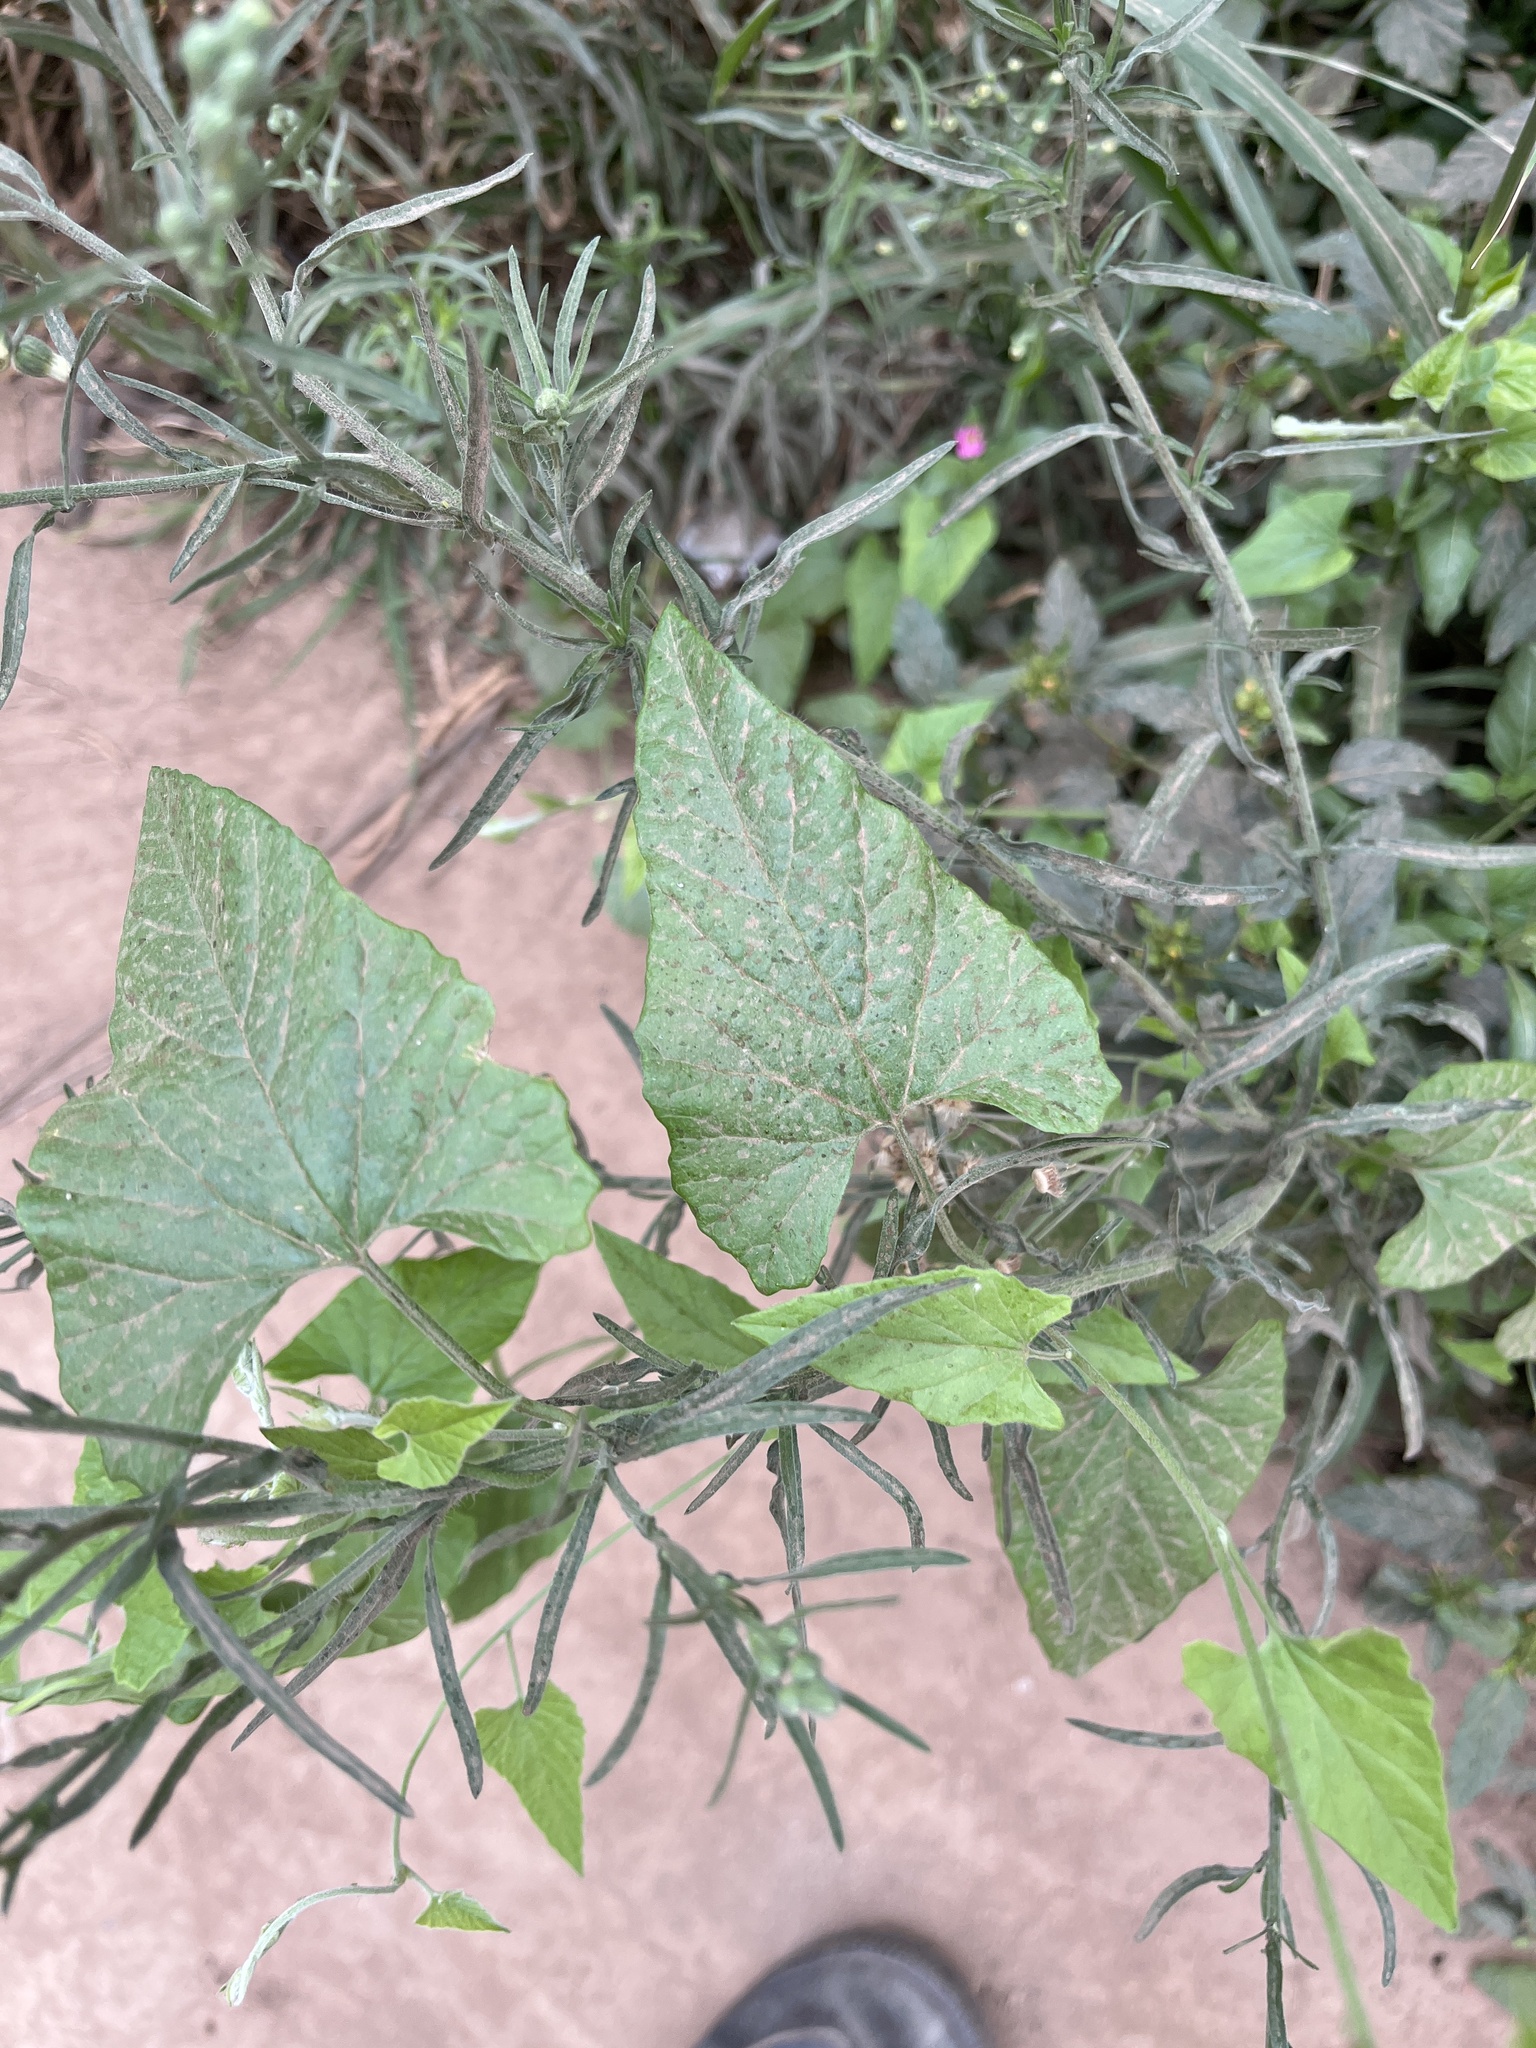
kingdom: Plantae
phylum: Tracheophyta
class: Magnoliopsida
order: Solanales
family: Convolvulaceae
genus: Convolvulus
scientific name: Convolvulus farinosus
